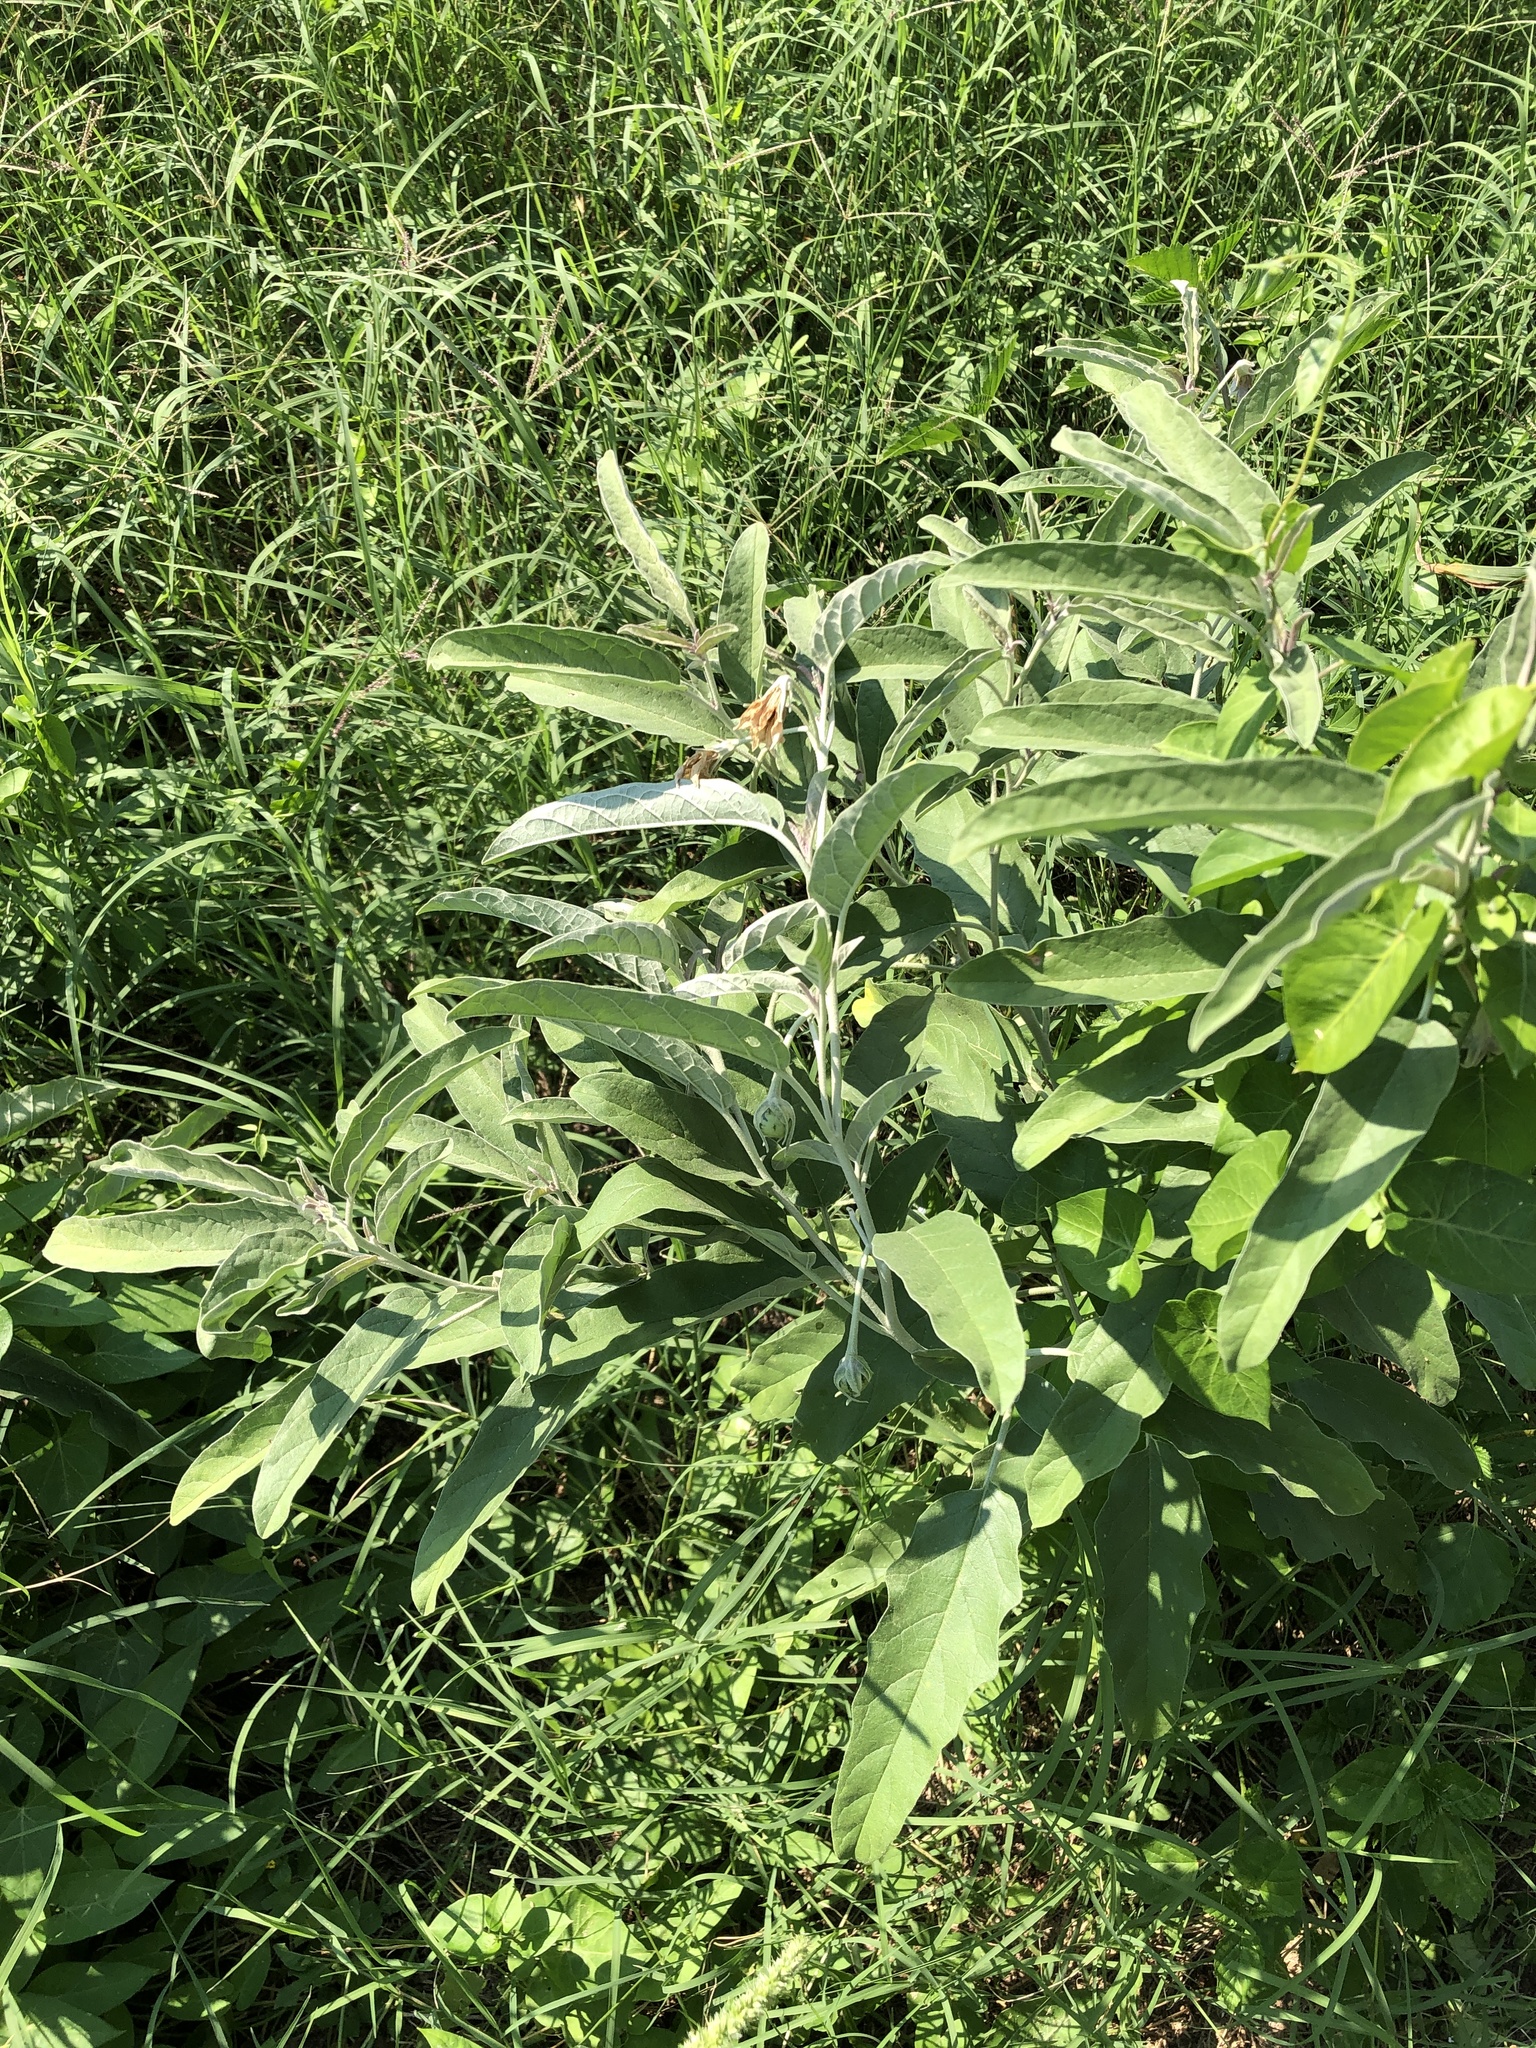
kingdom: Plantae
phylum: Tracheophyta
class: Magnoliopsida
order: Solanales
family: Solanaceae
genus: Solanum
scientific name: Solanum elaeagnifolium
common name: Silverleaf nightshade
